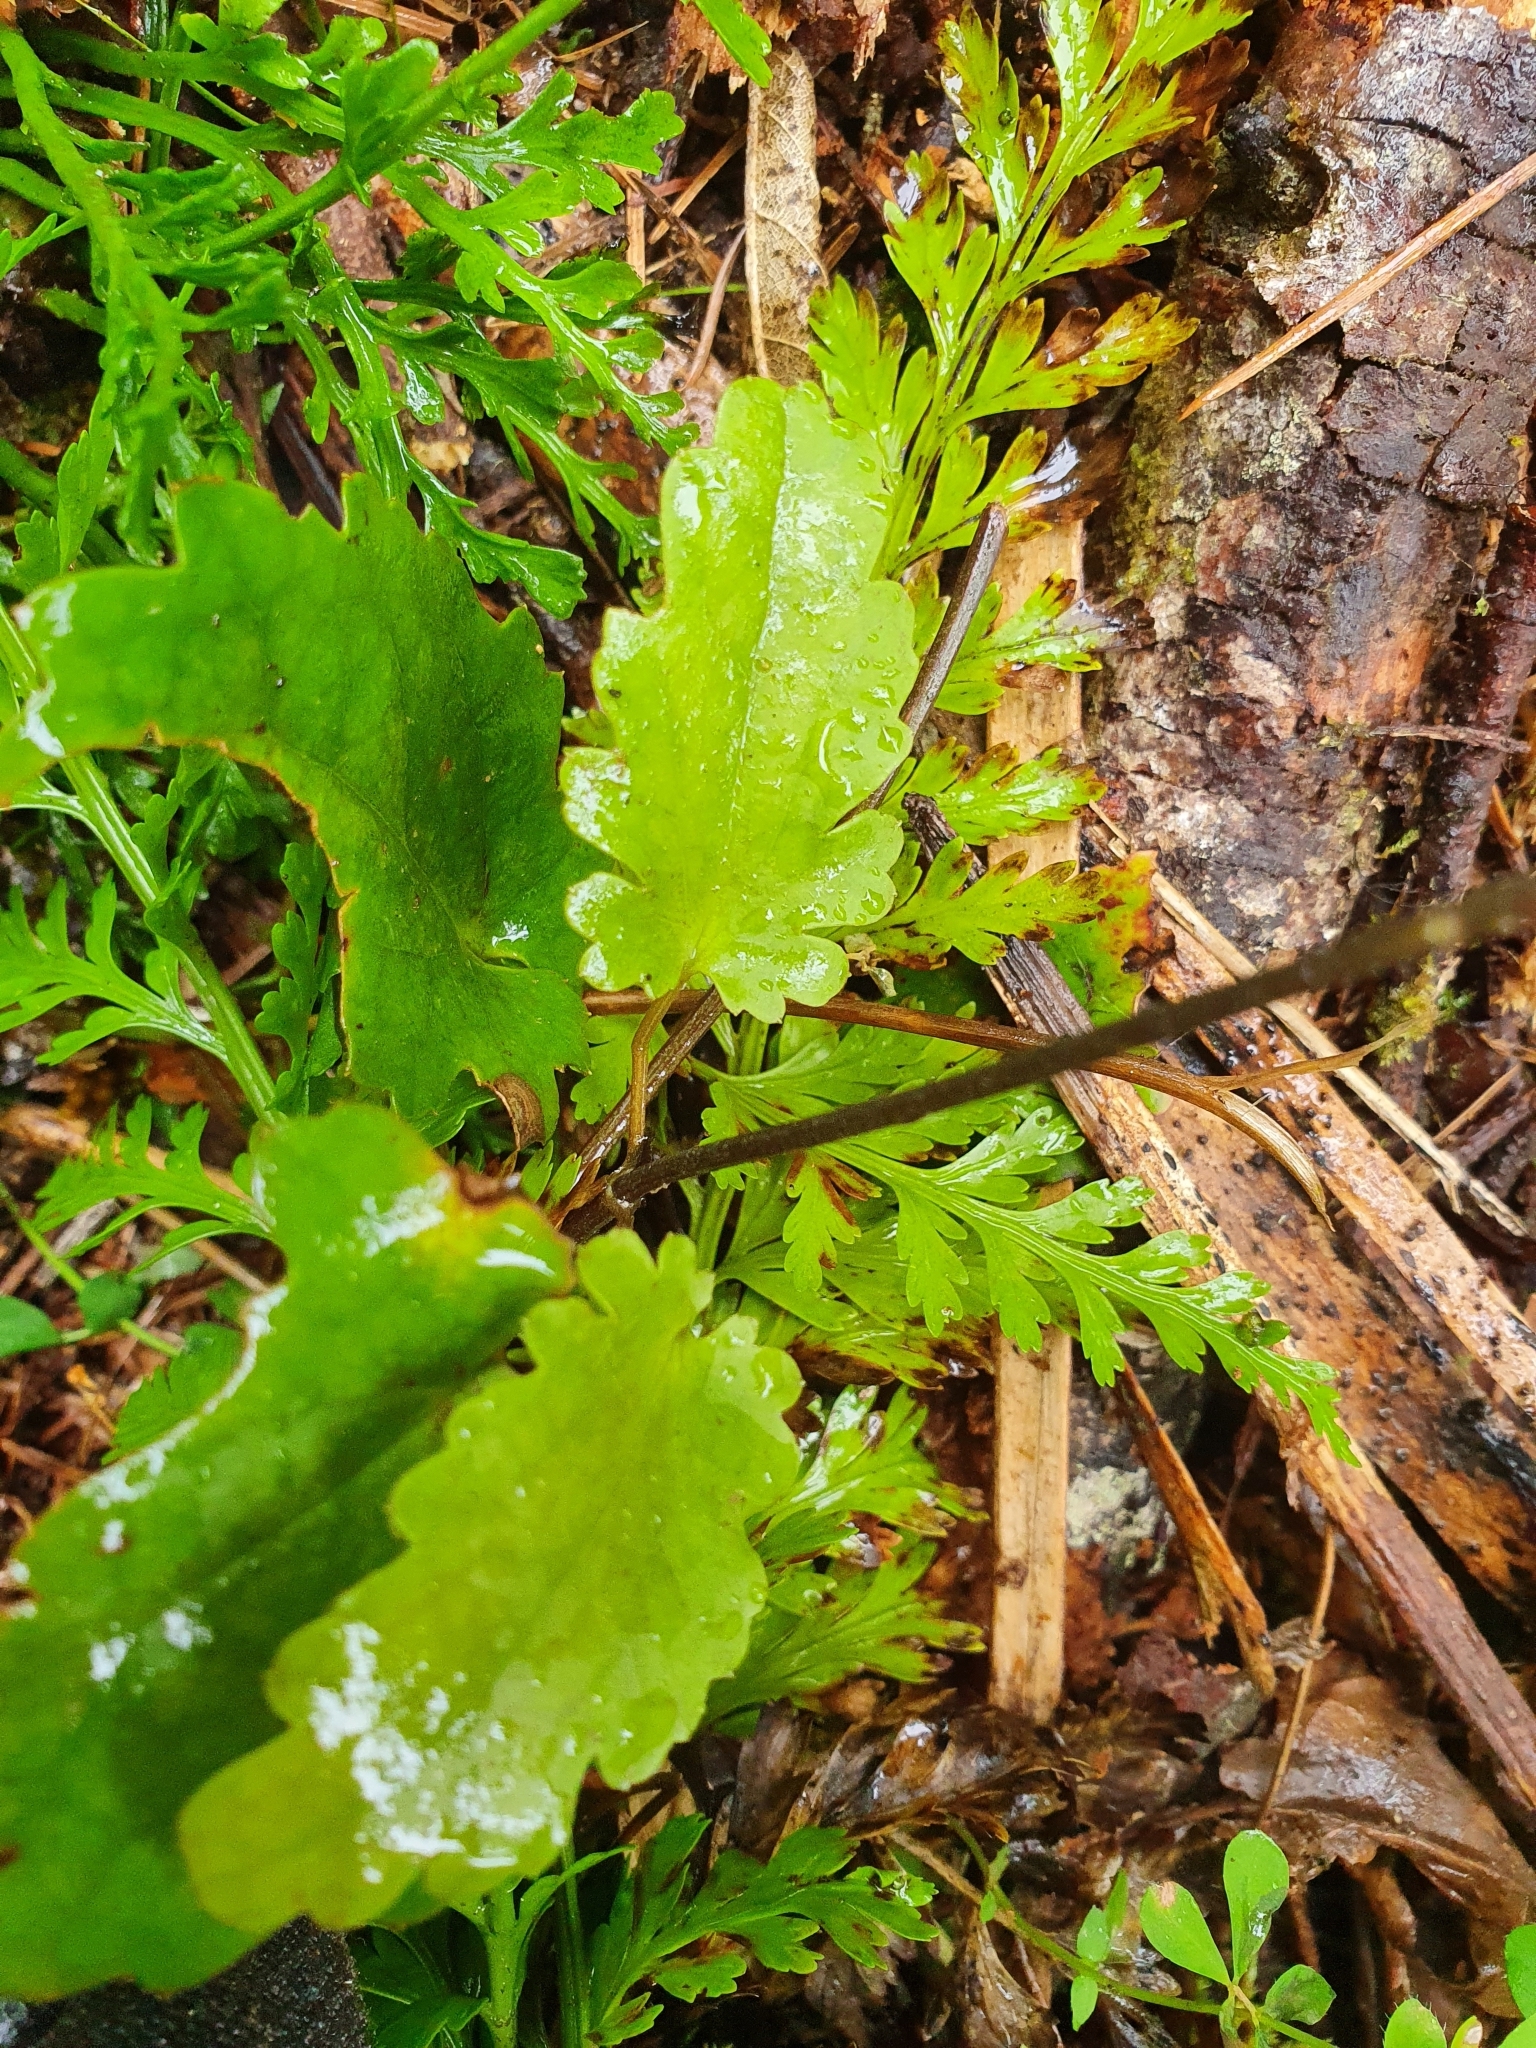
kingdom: Plantae
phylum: Tracheophyta
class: Magnoliopsida
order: Ranunculales
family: Ranunculaceae
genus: Clematis
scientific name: Clematis paniculata
